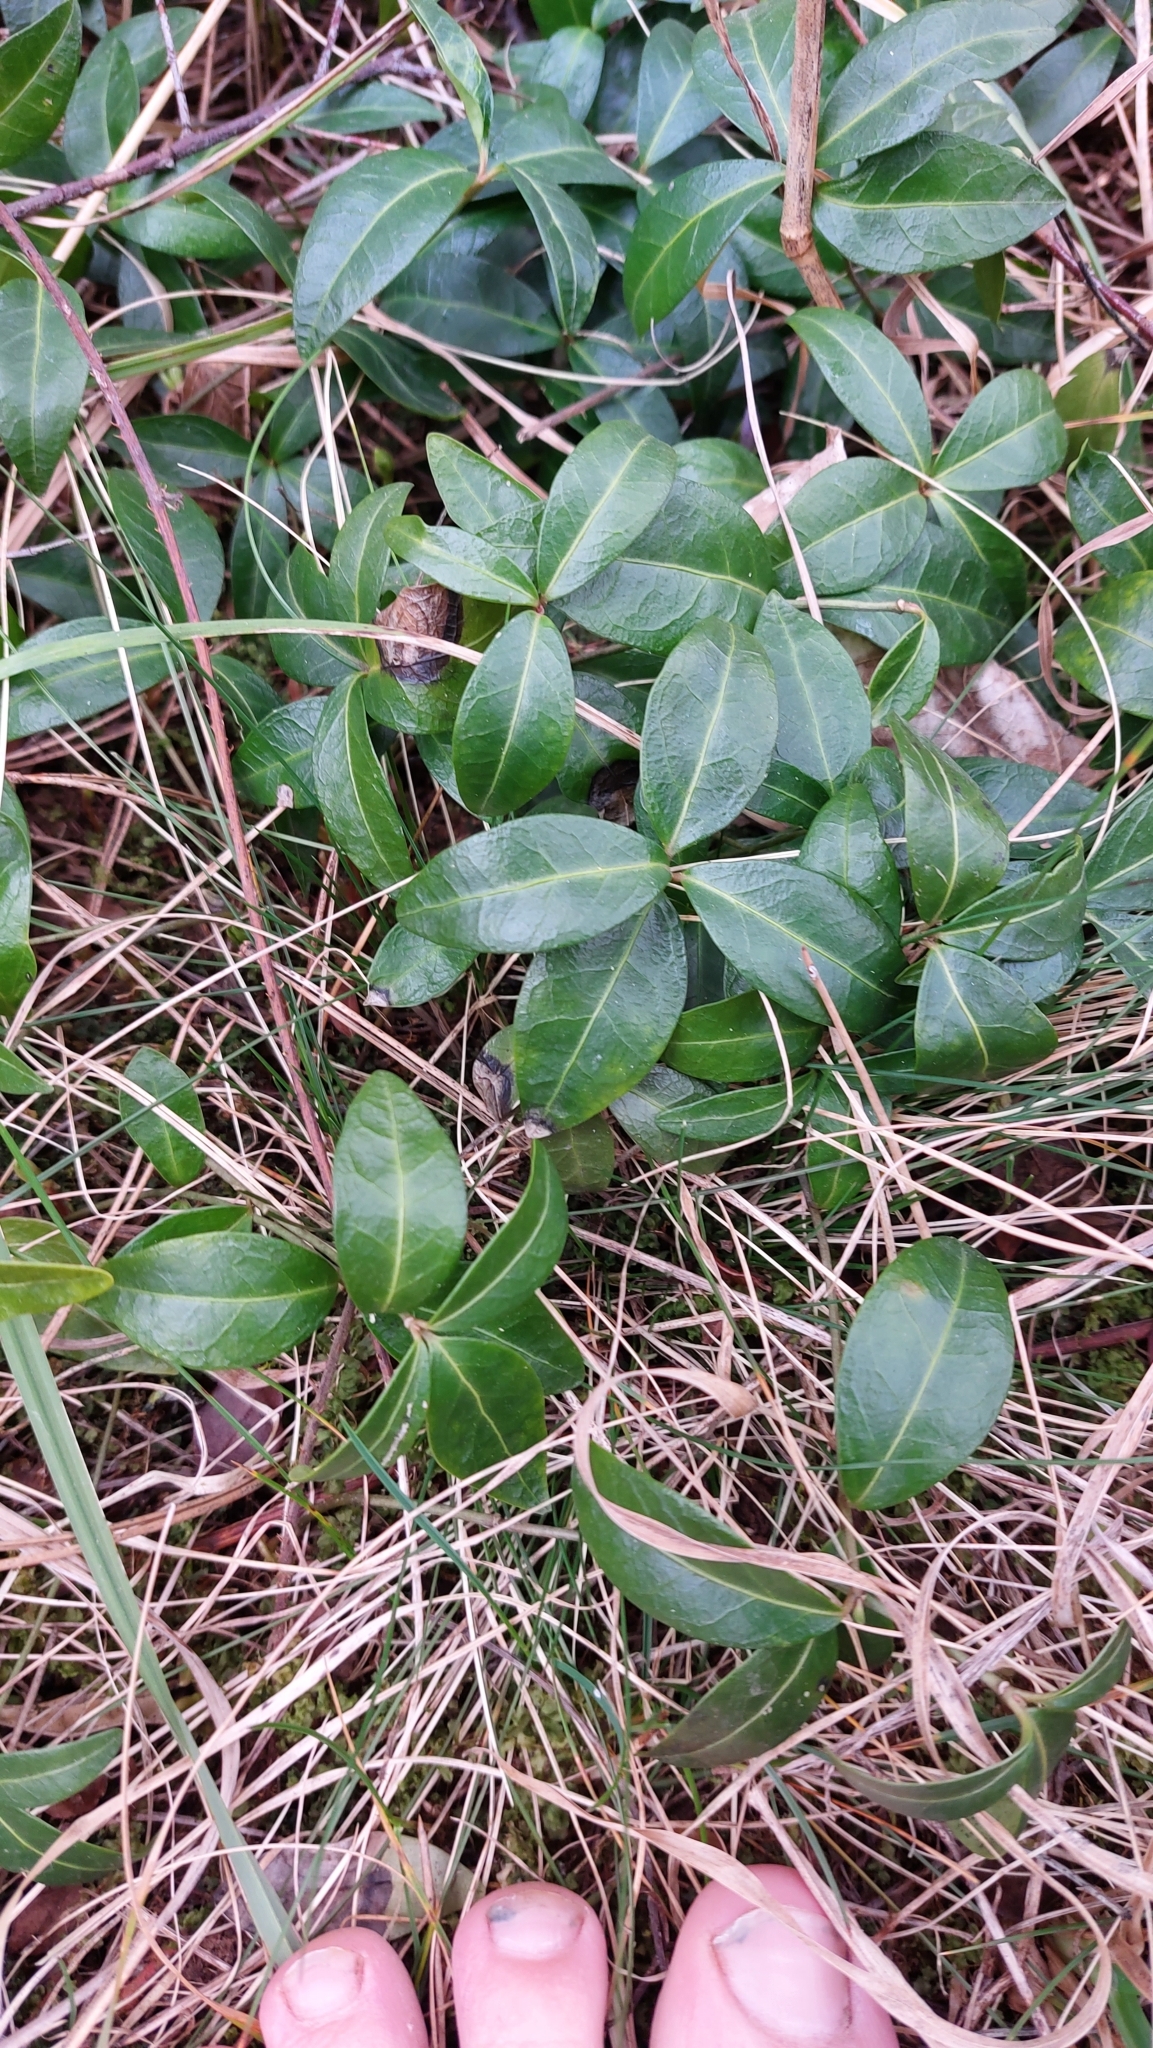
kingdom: Plantae
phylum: Tracheophyta
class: Magnoliopsida
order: Gentianales
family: Apocynaceae
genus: Vinca
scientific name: Vinca minor
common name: Lesser periwinkle
